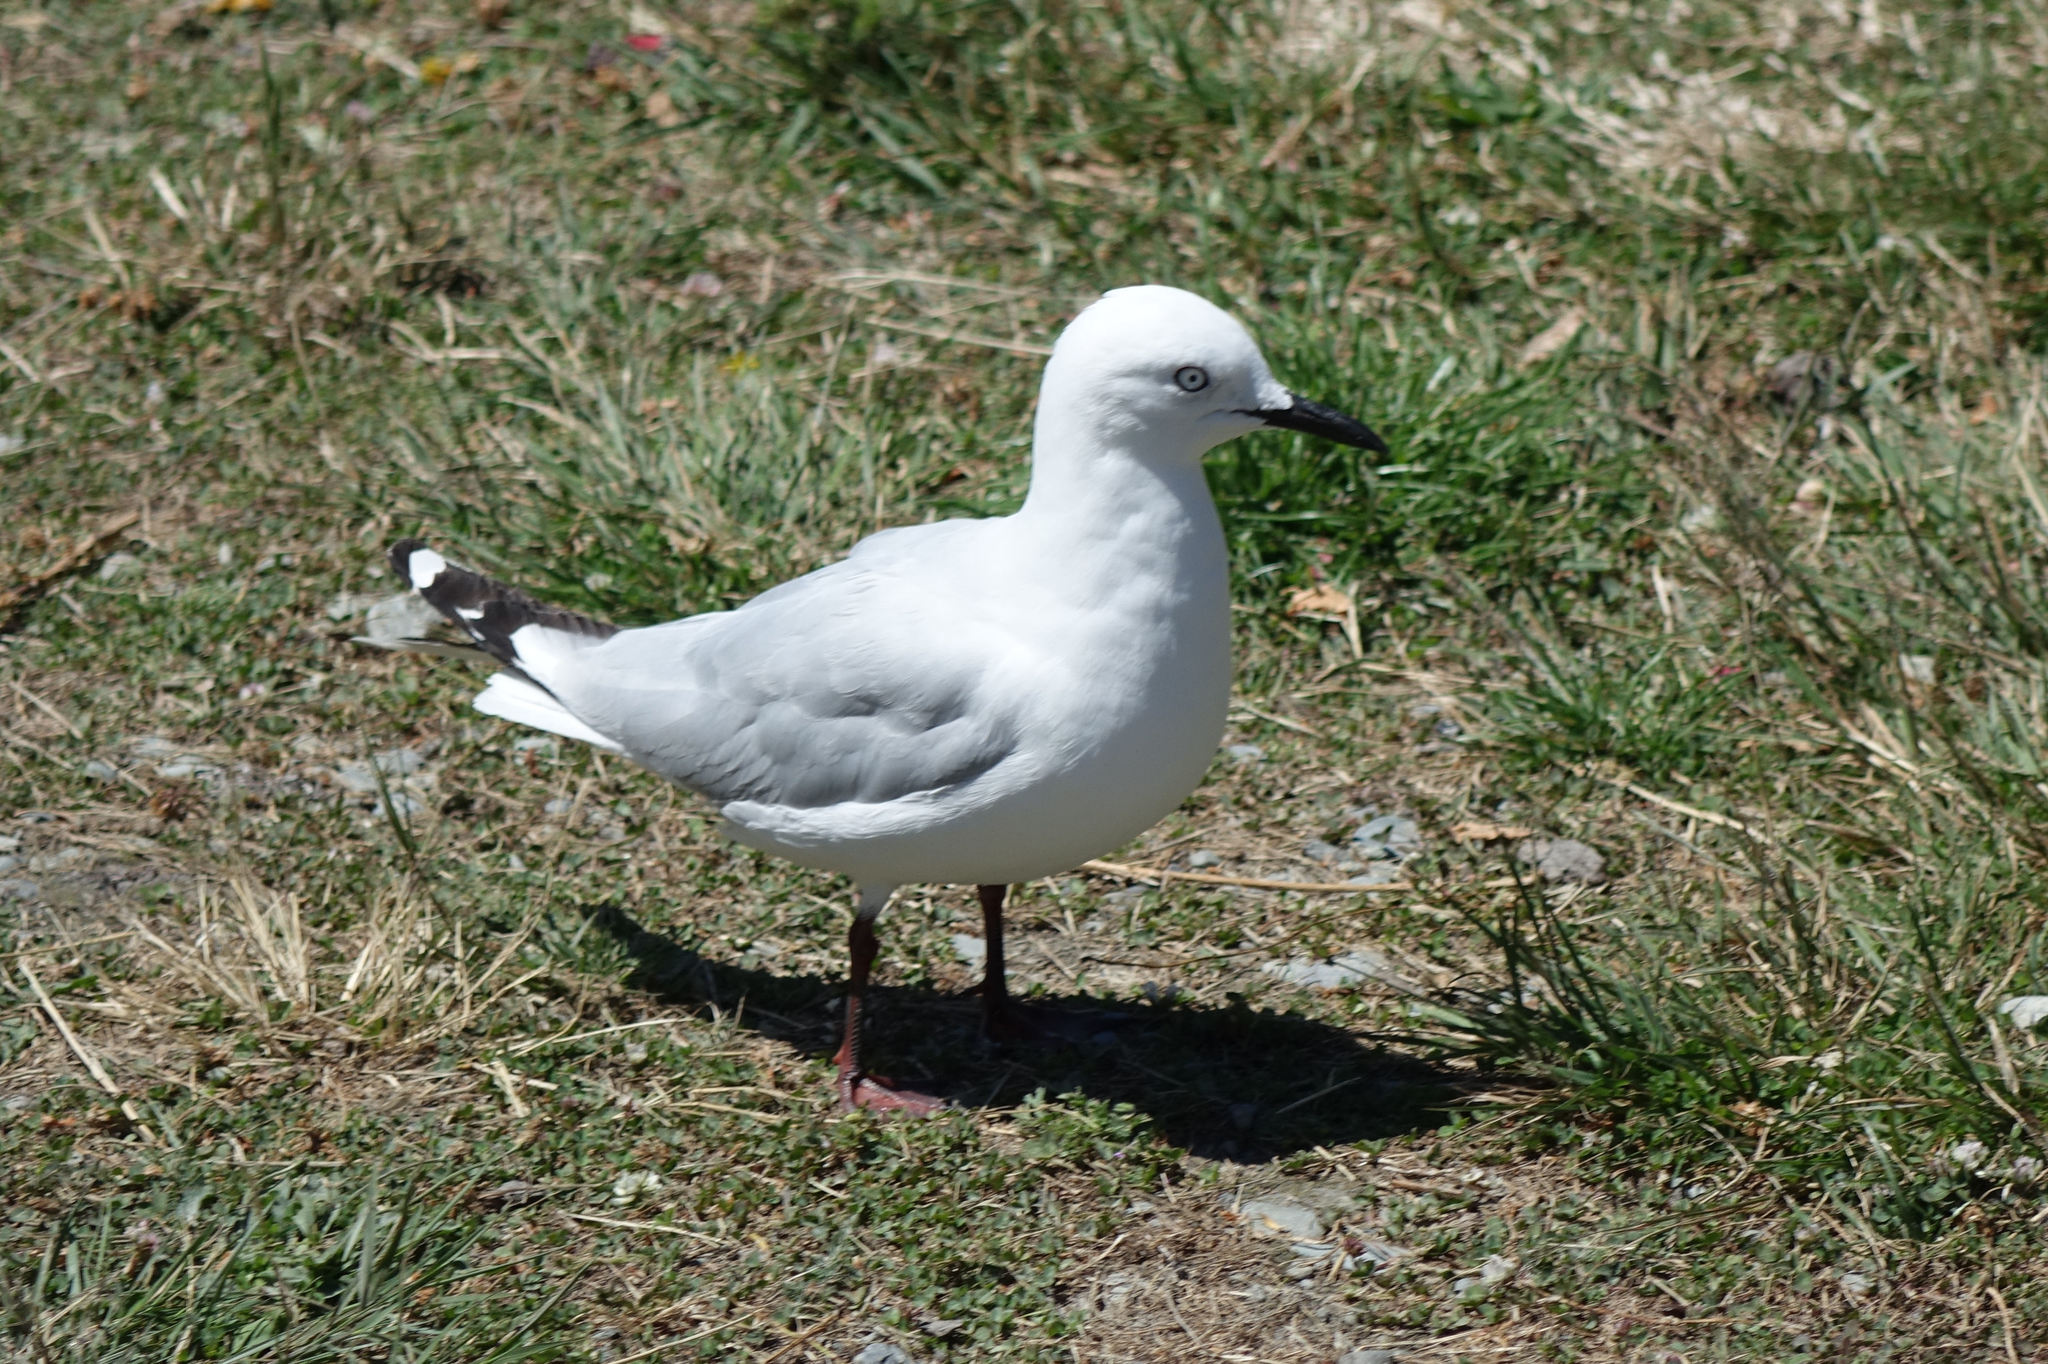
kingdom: Animalia
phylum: Chordata
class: Aves
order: Charadriiformes
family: Laridae
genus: Chroicocephalus
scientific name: Chroicocephalus bulleri
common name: Black-billed gull
